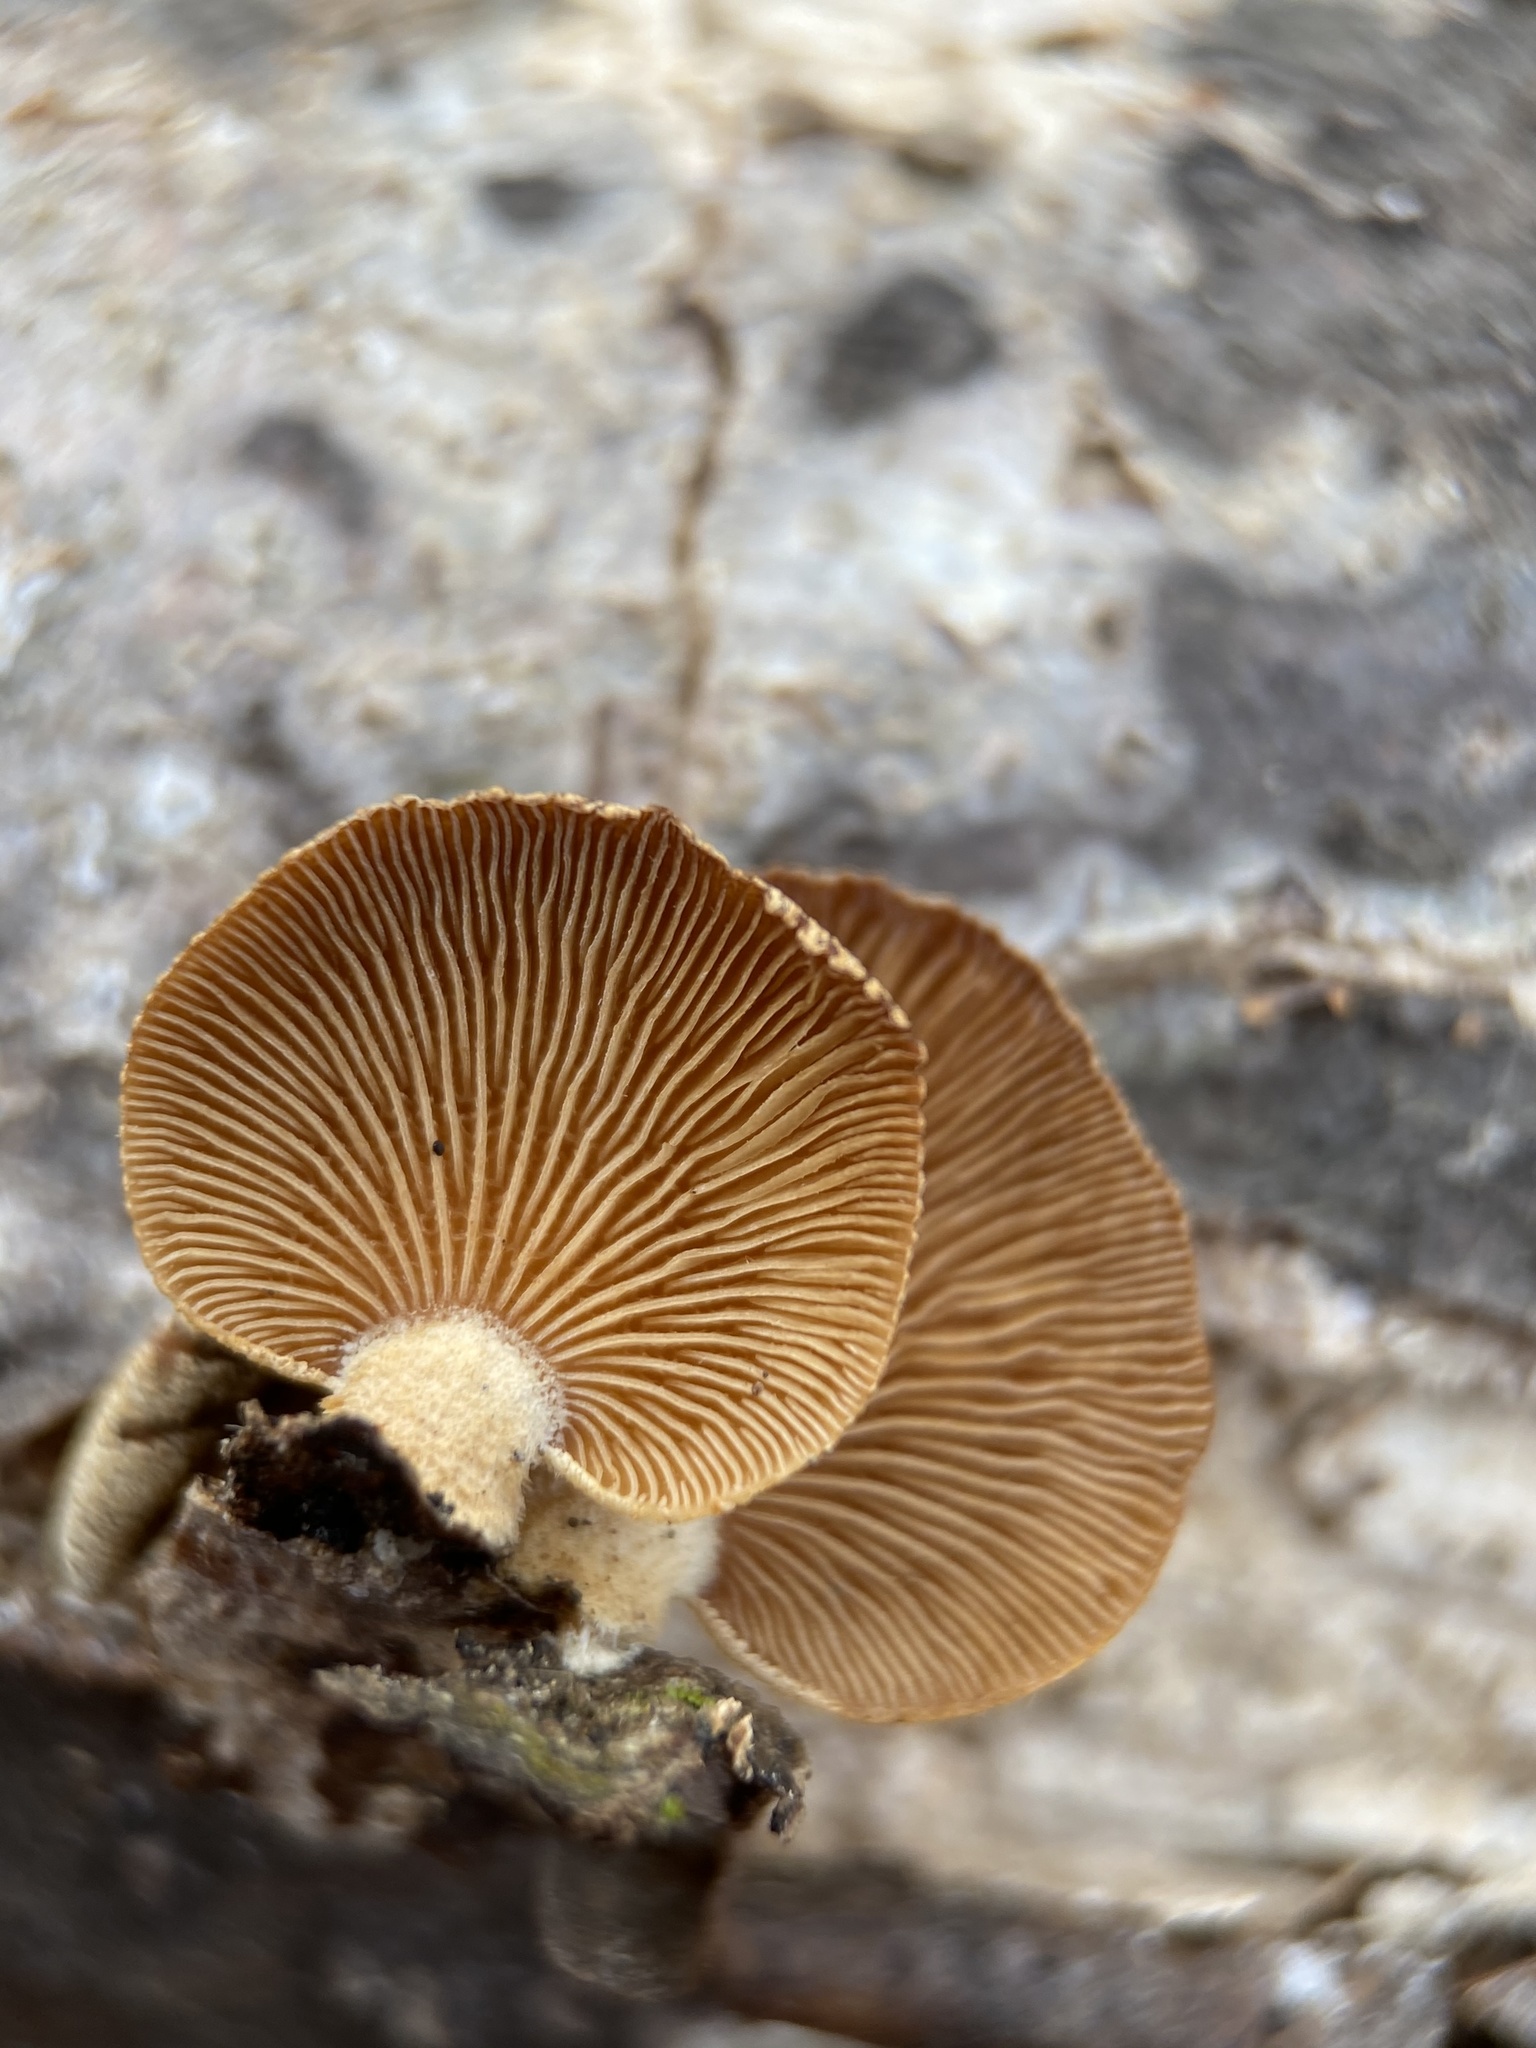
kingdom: Fungi
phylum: Basidiomycota
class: Agaricomycetes
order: Agaricales
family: Mycenaceae
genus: Panellus
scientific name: Panellus stipticus
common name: Bitter oysterling
